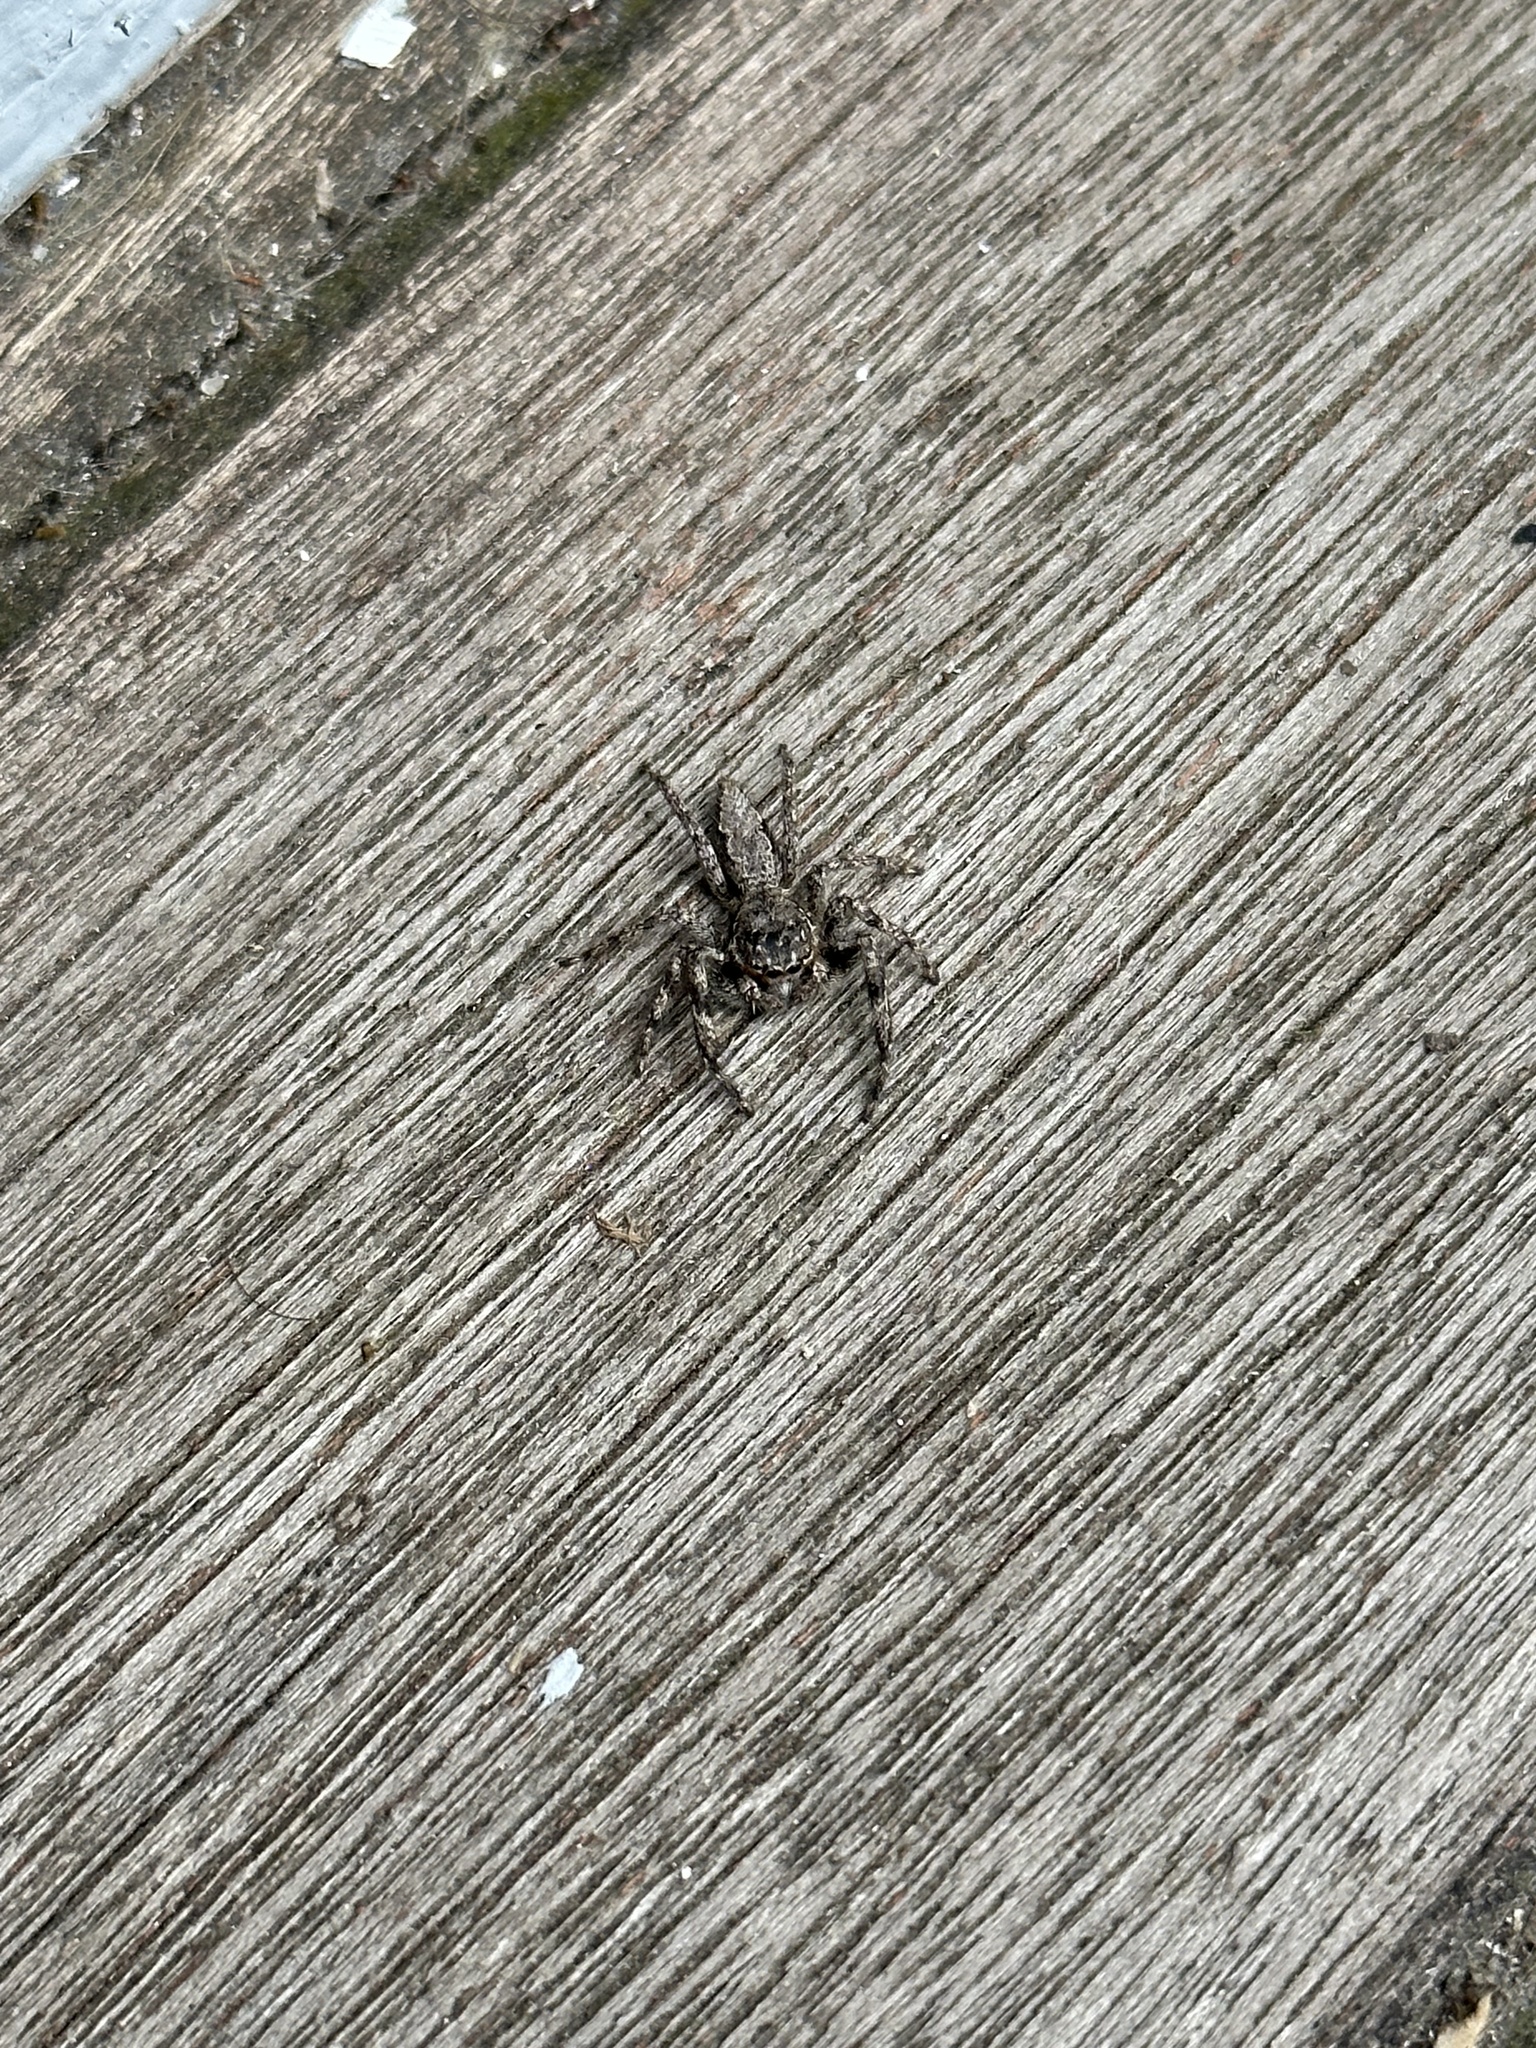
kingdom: Animalia
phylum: Arthropoda
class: Arachnida
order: Araneae
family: Salticidae
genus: Platycryptus
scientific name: Platycryptus undatus
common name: Tan jumping spider
